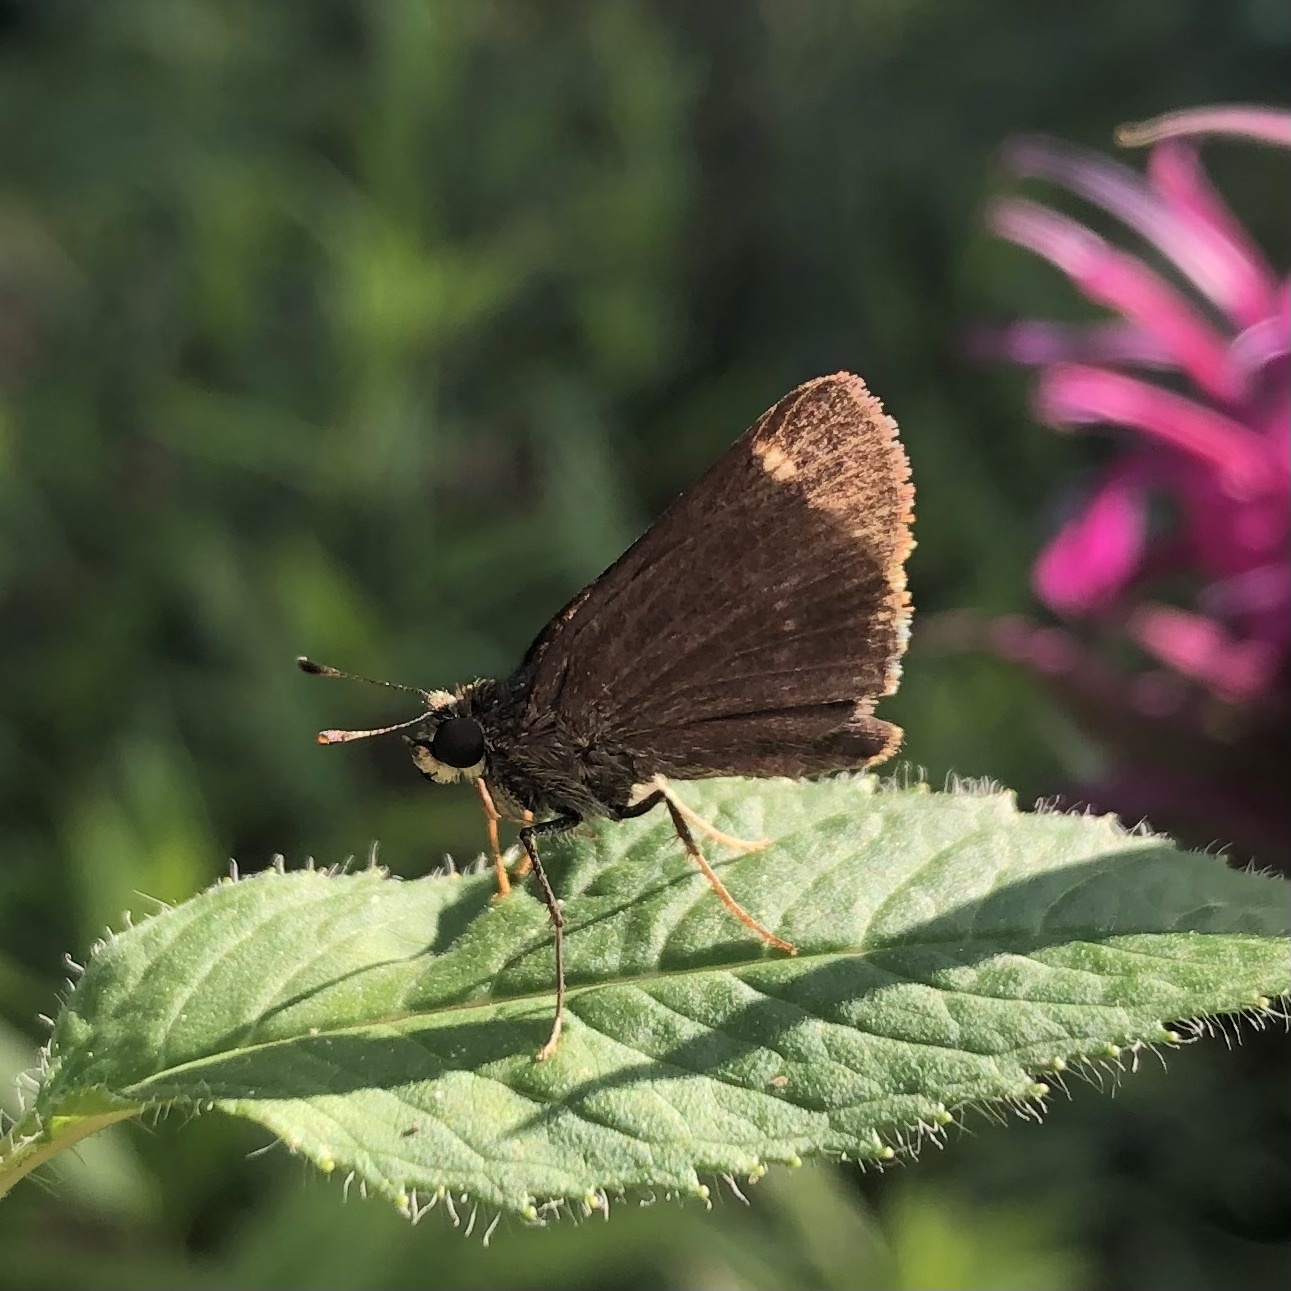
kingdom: Animalia
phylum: Arthropoda
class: Insecta
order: Lepidoptera
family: Hesperiidae
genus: Vernia
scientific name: Vernia verna
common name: Little glassywing
